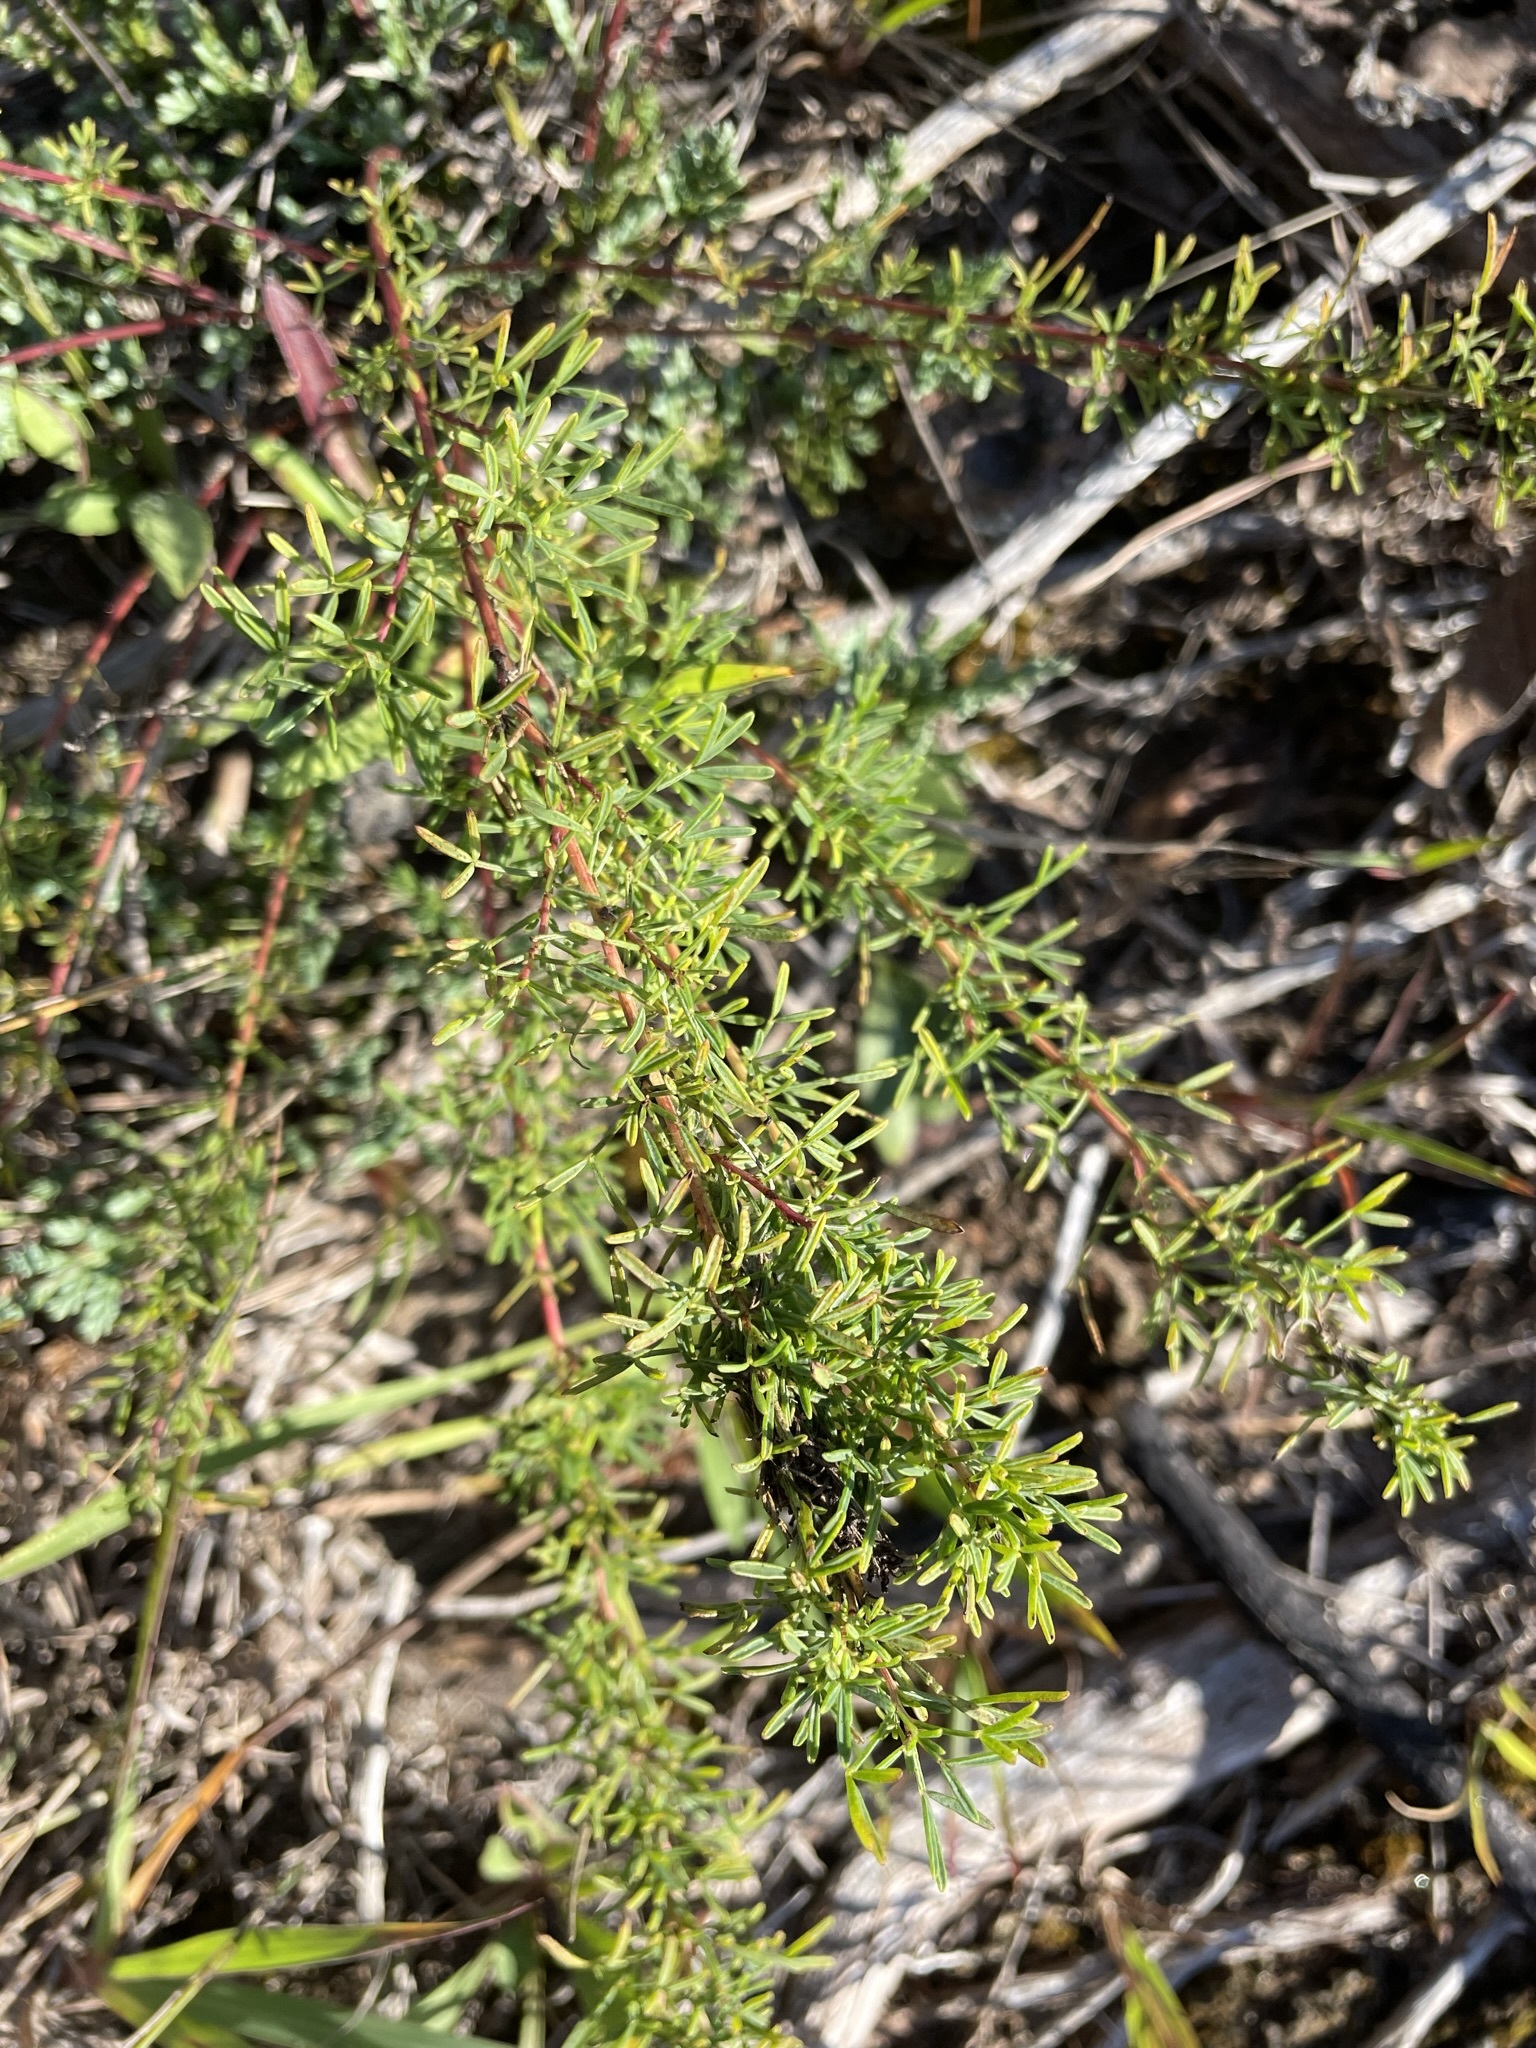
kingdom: Plantae
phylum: Tracheophyta
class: Magnoliopsida
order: Fabales
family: Fabaceae
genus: Dalea
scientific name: Dalea purpurea
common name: Purple prairie-clover
